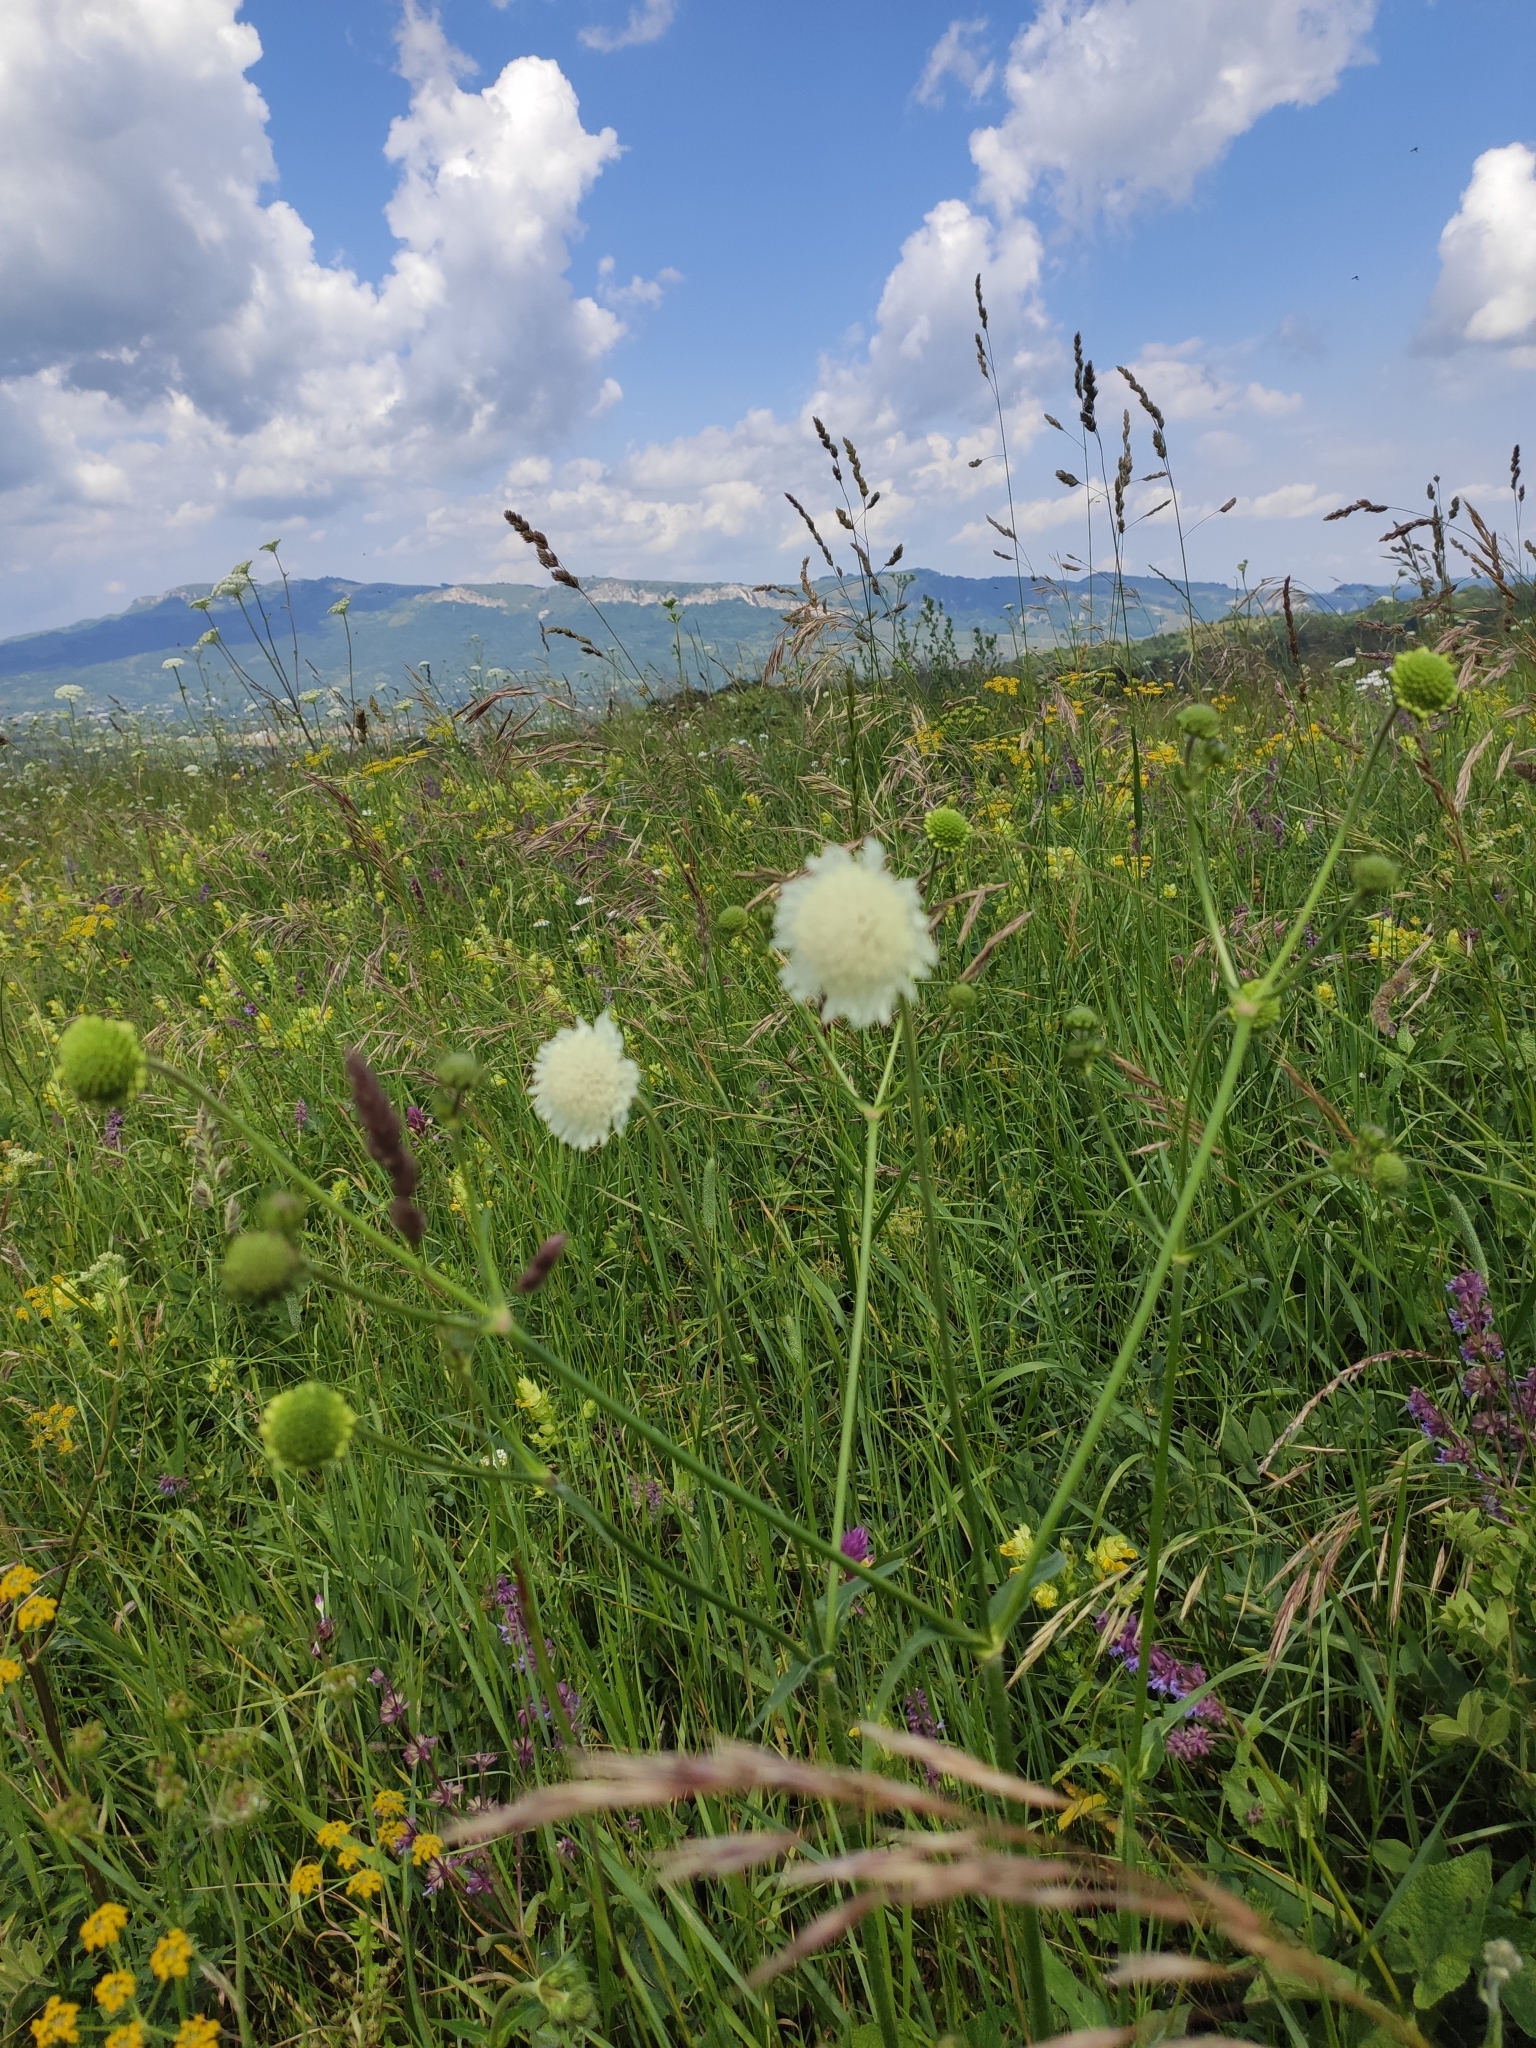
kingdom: Plantae
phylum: Tracheophyta
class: Magnoliopsida
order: Dipsacales
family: Caprifoliaceae
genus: Scabiosa
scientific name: Scabiosa ochroleuca
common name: Cream pincushions
